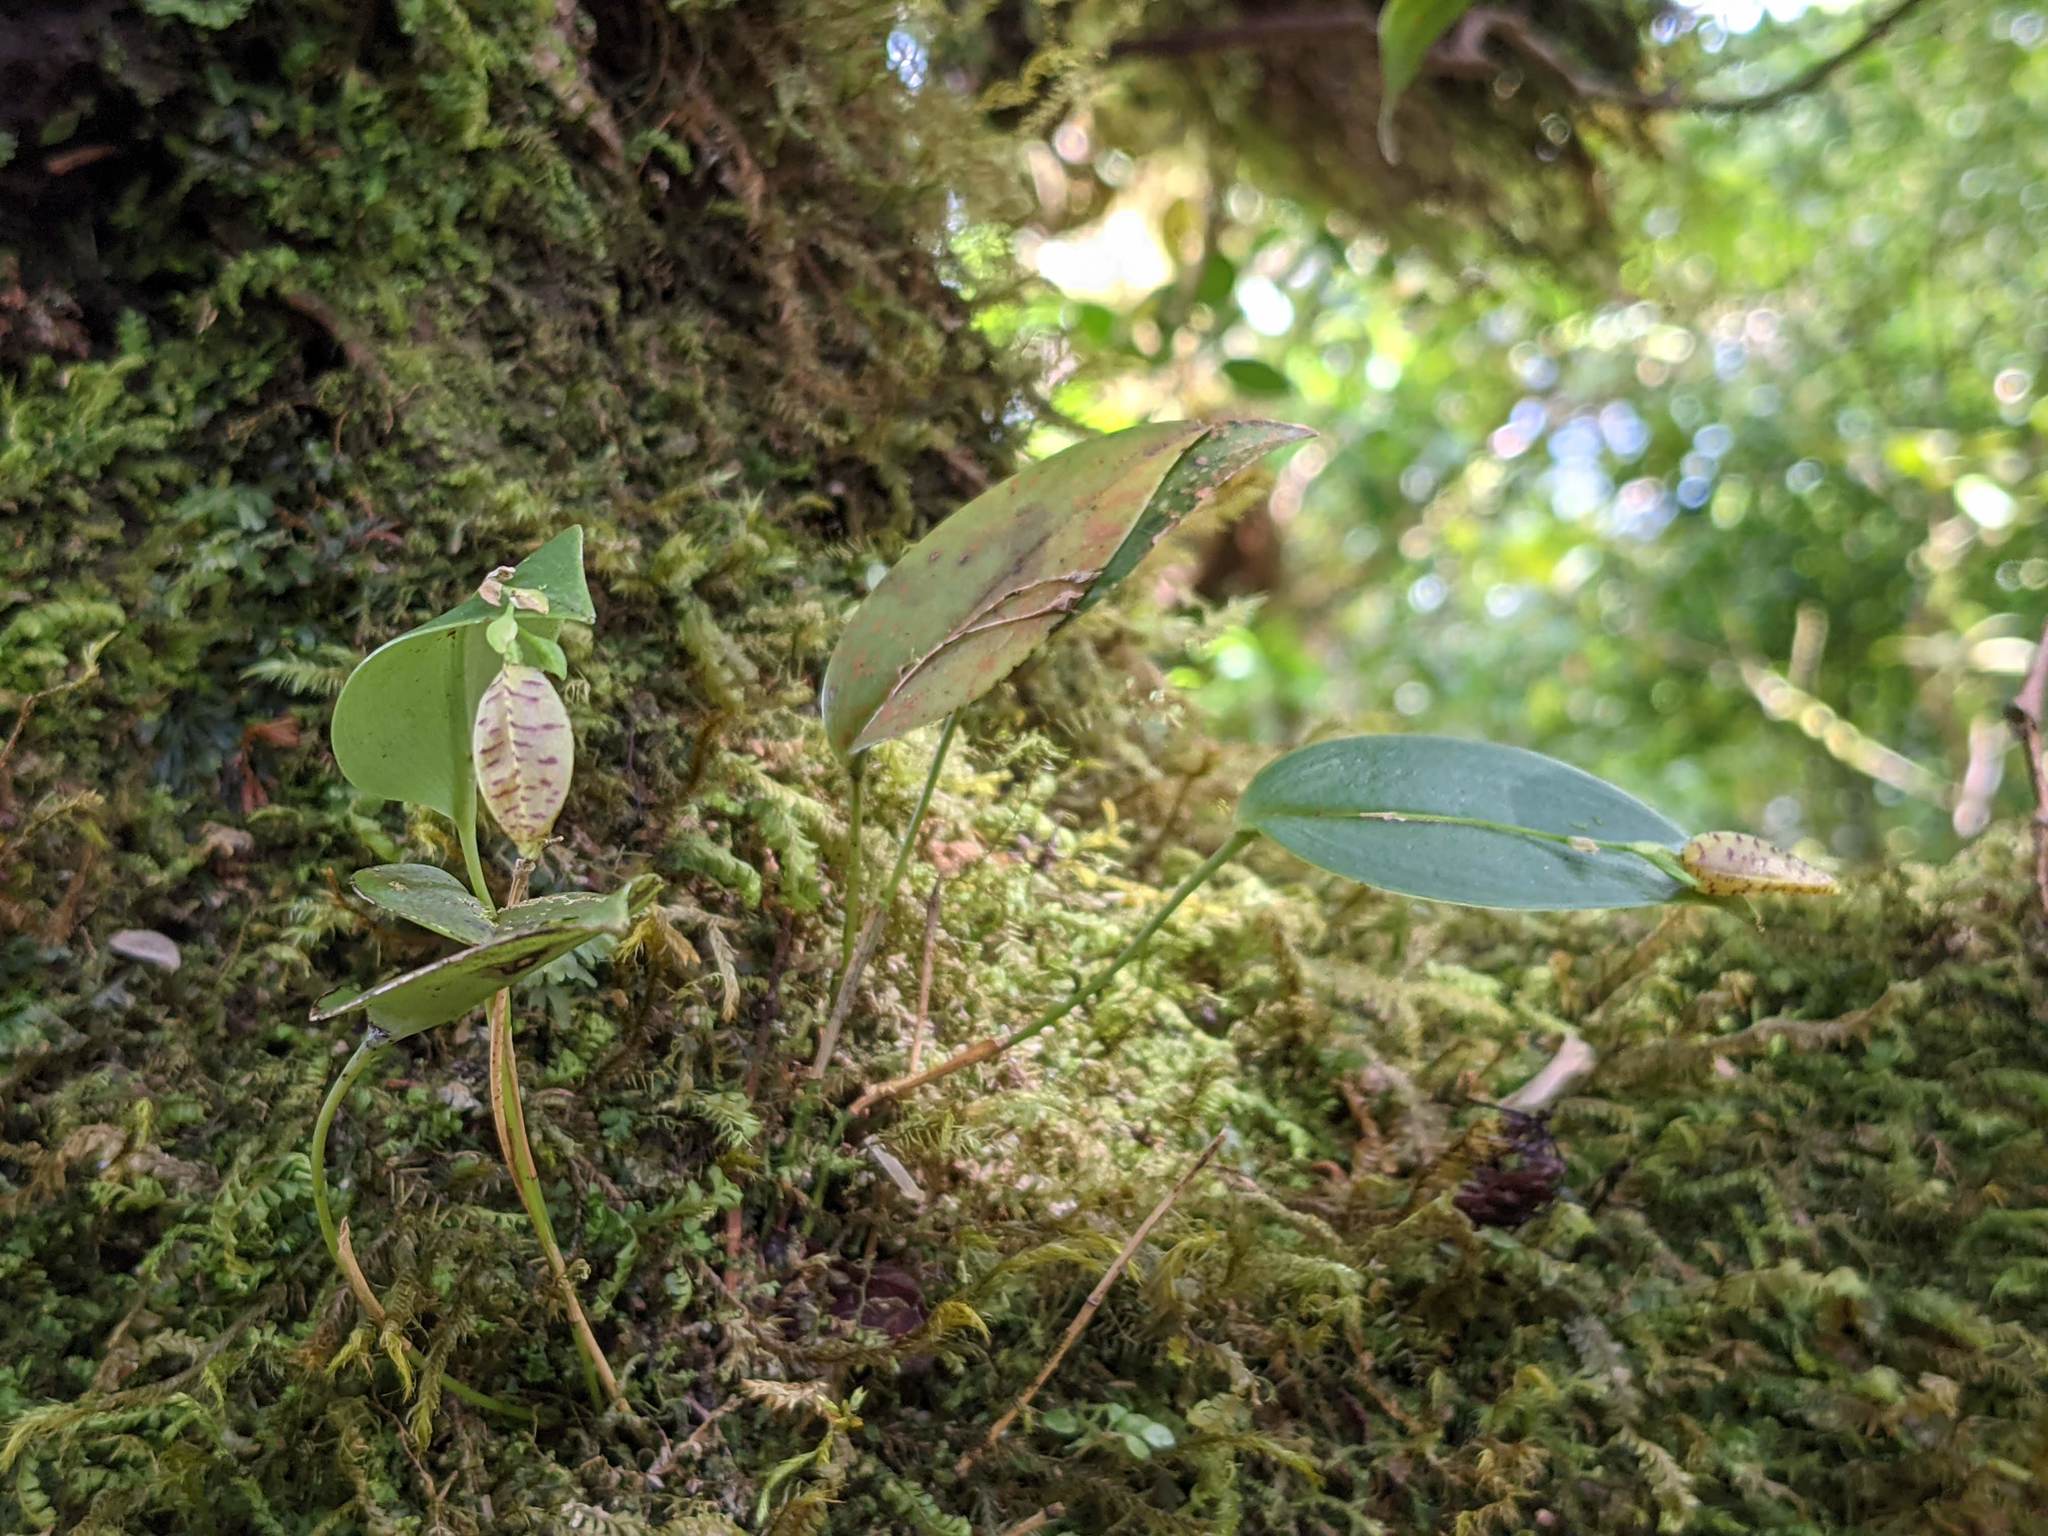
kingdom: Plantae
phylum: Tracheophyta
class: Liliopsida
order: Asparagales
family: Orchidaceae
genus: Stelis
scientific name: Stelis carpinterae
